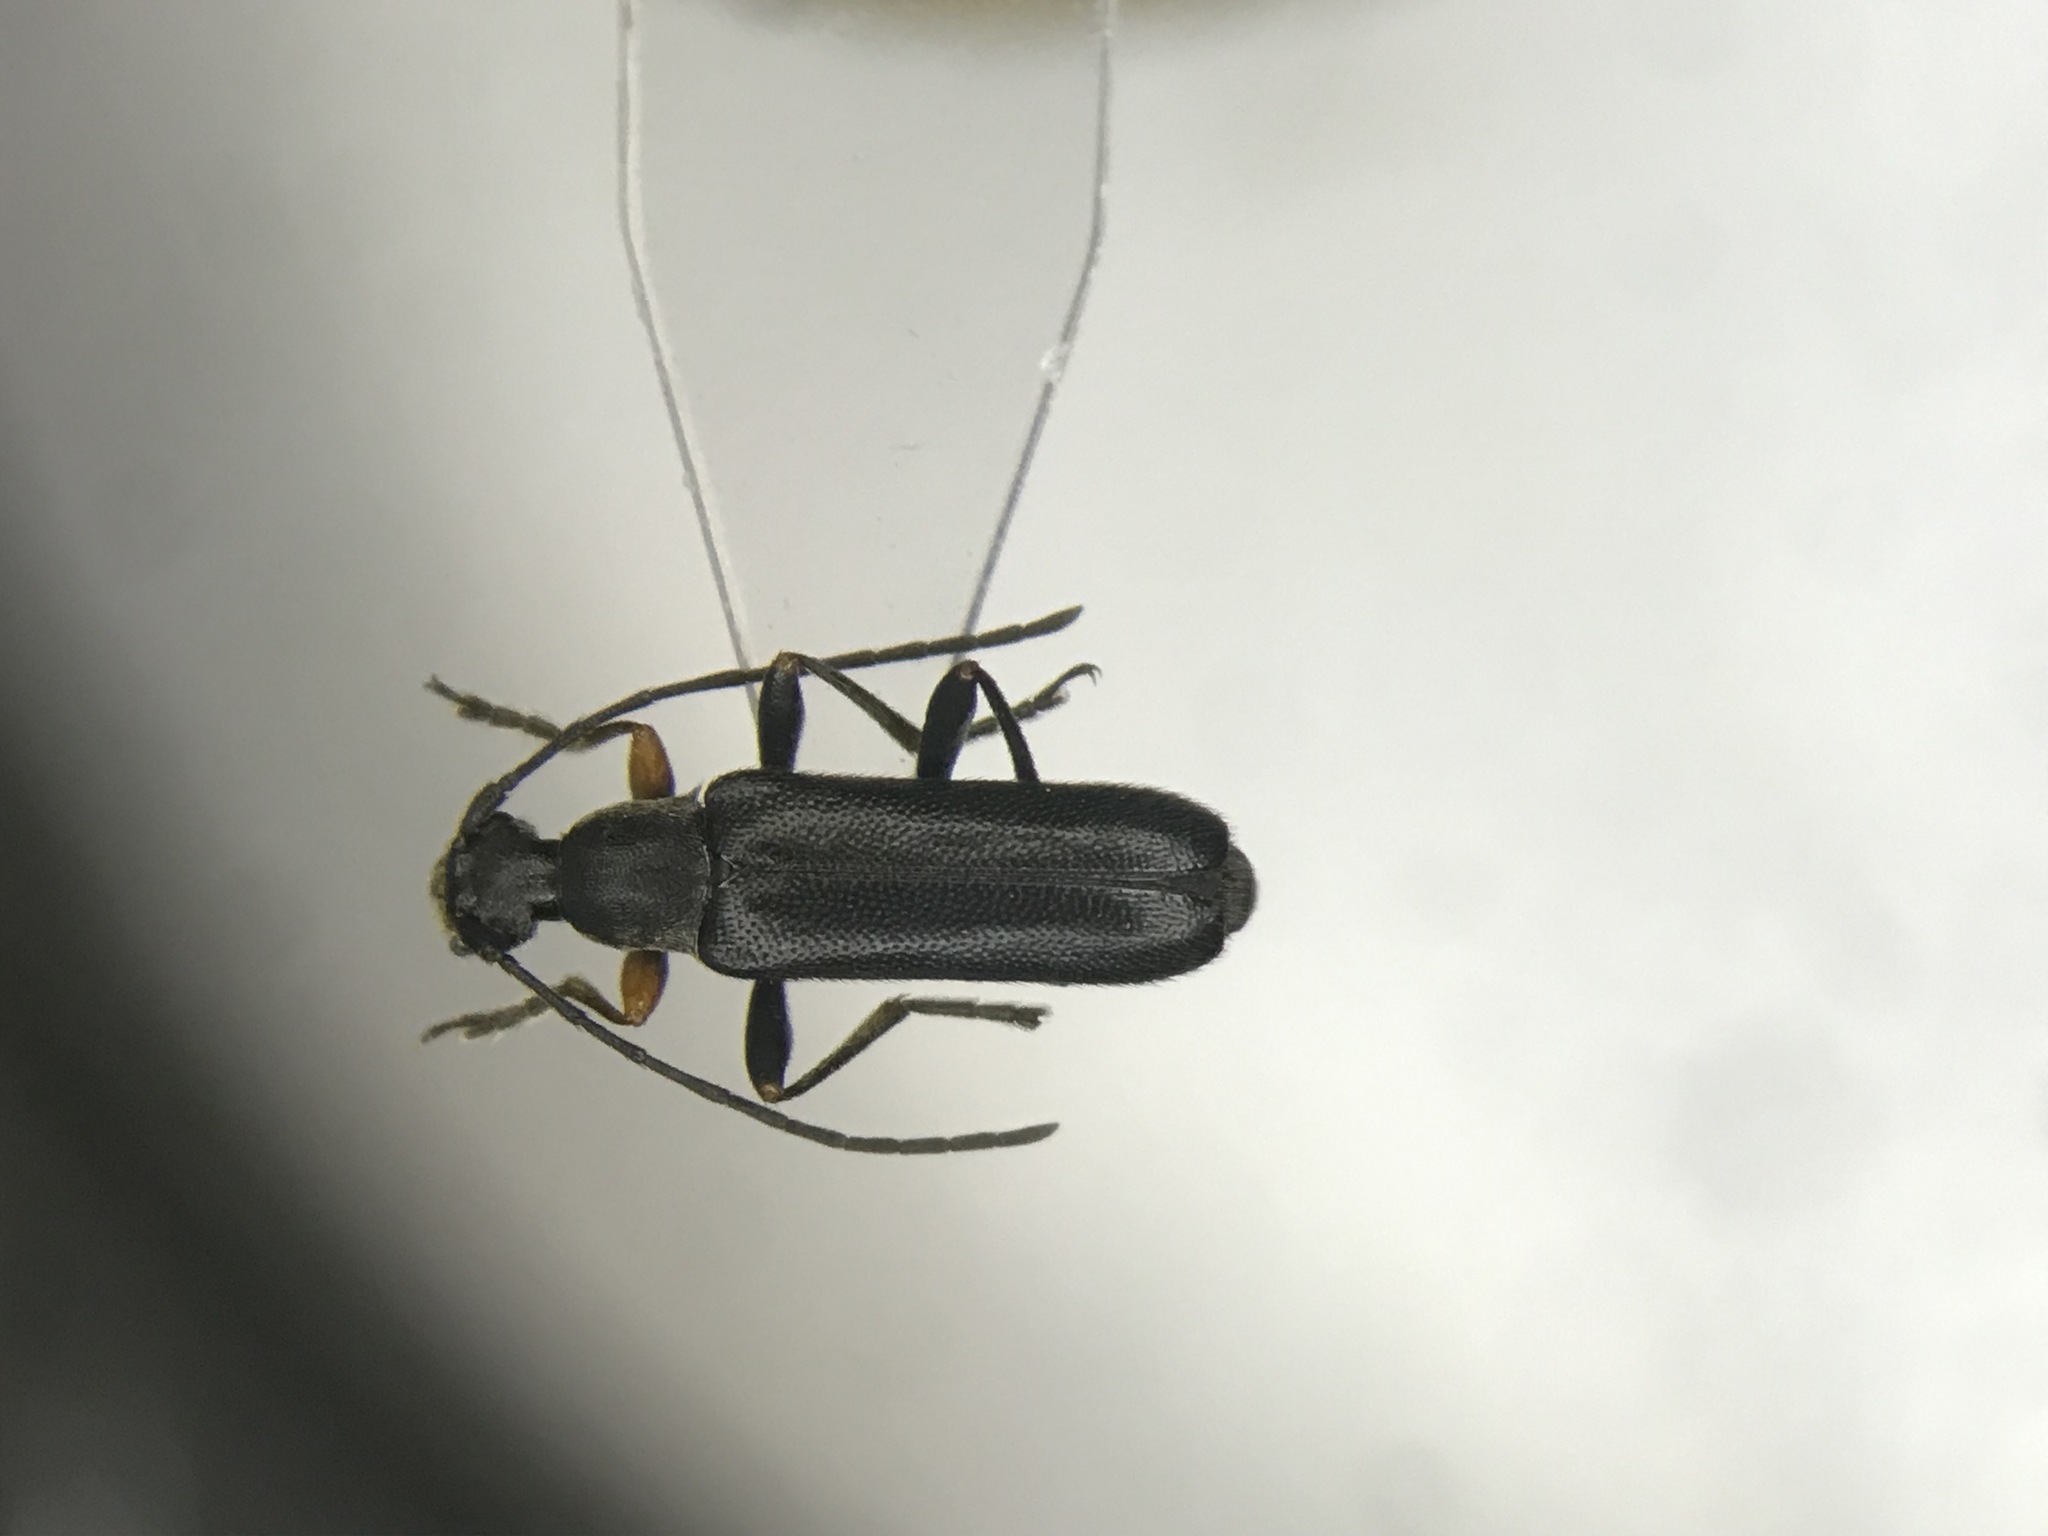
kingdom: Animalia
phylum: Arthropoda
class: Insecta
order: Coleoptera
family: Cerambycidae
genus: Grammoptera
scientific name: Grammoptera haematites
